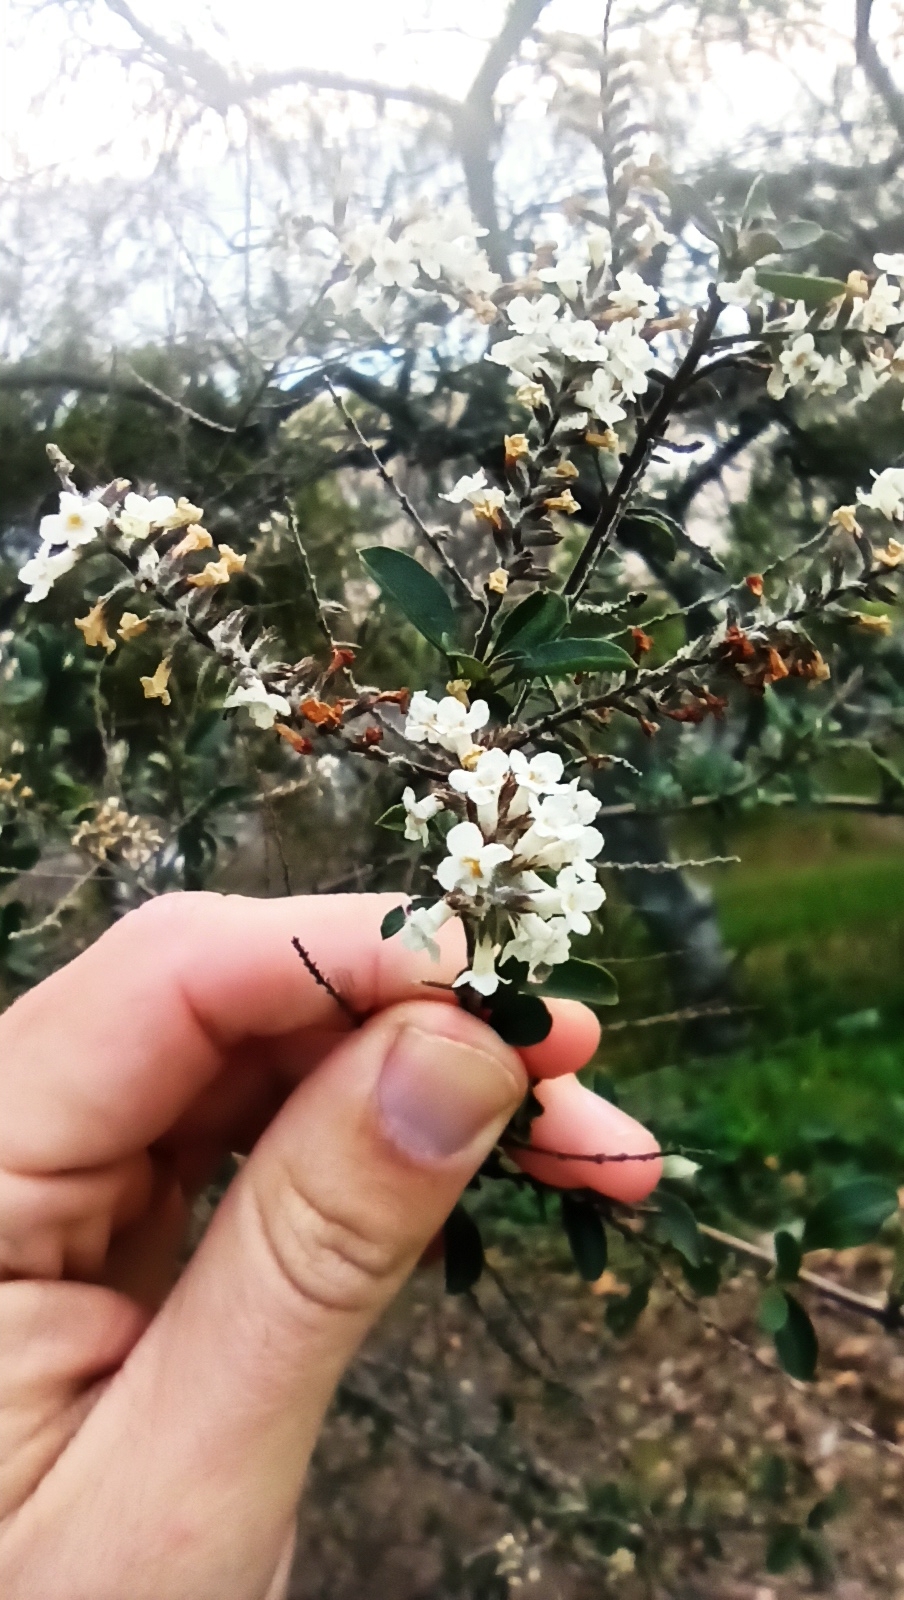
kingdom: Plantae
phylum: Tracheophyta
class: Magnoliopsida
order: Lamiales
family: Verbenaceae
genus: Aloysia
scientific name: Aloysia gratissima
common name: Common bee-brush
